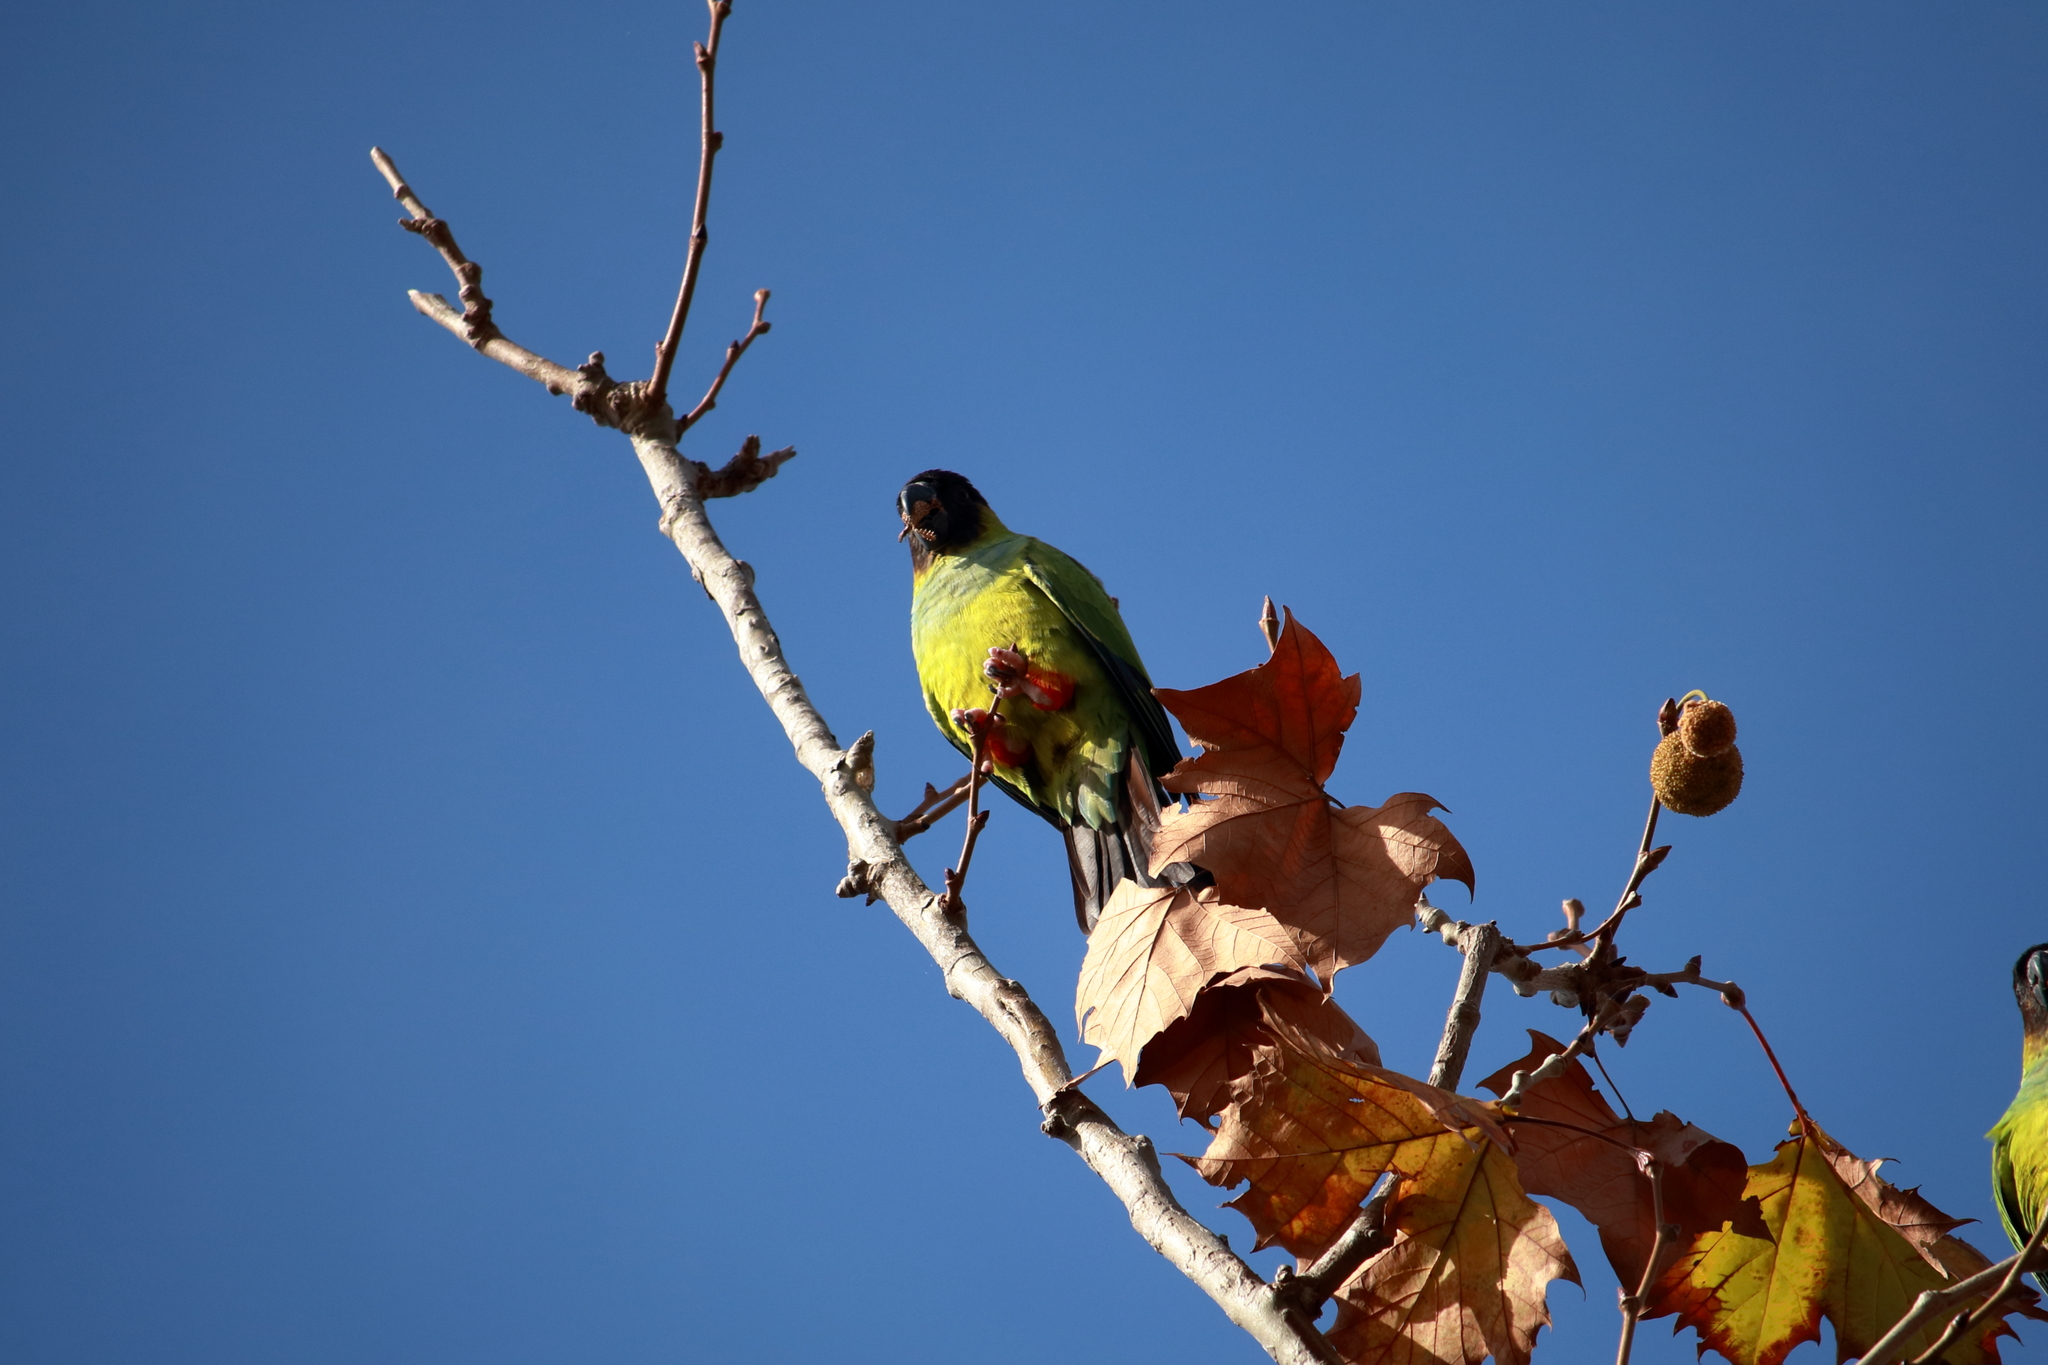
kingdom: Animalia
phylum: Chordata
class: Aves
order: Psittaciformes
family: Psittacidae
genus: Nandayus
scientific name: Nandayus nenday
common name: Nanday parakeet
